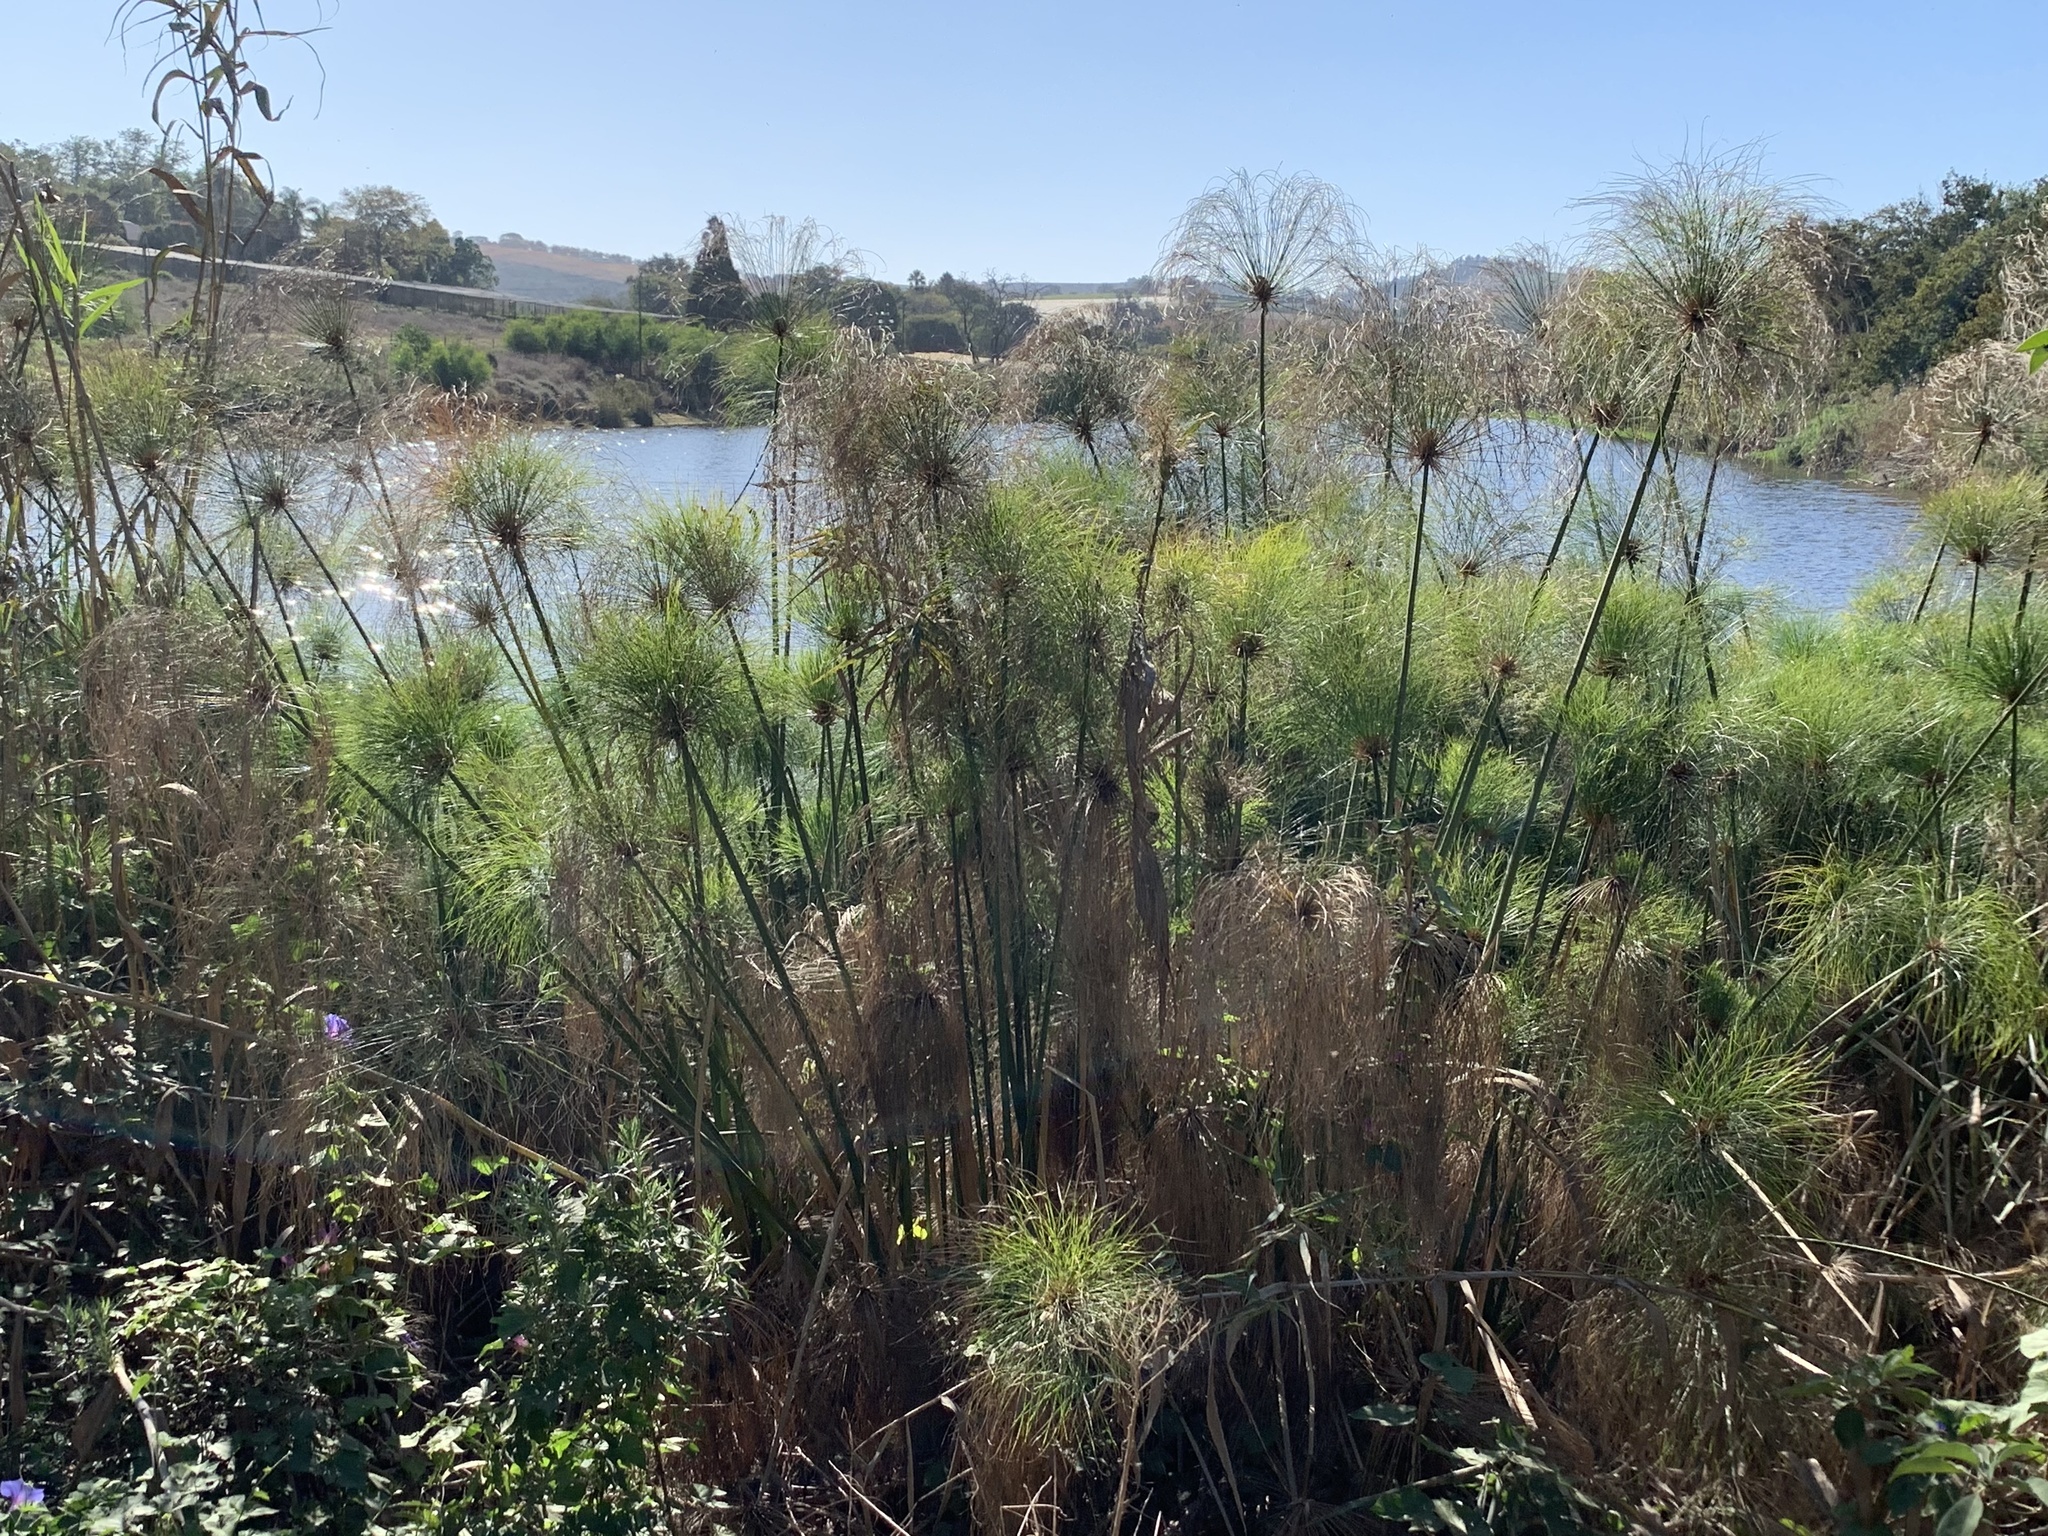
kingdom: Plantae
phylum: Tracheophyta
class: Liliopsida
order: Poales
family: Cyperaceae
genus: Cyperus
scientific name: Cyperus papyrus
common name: Papyrus
